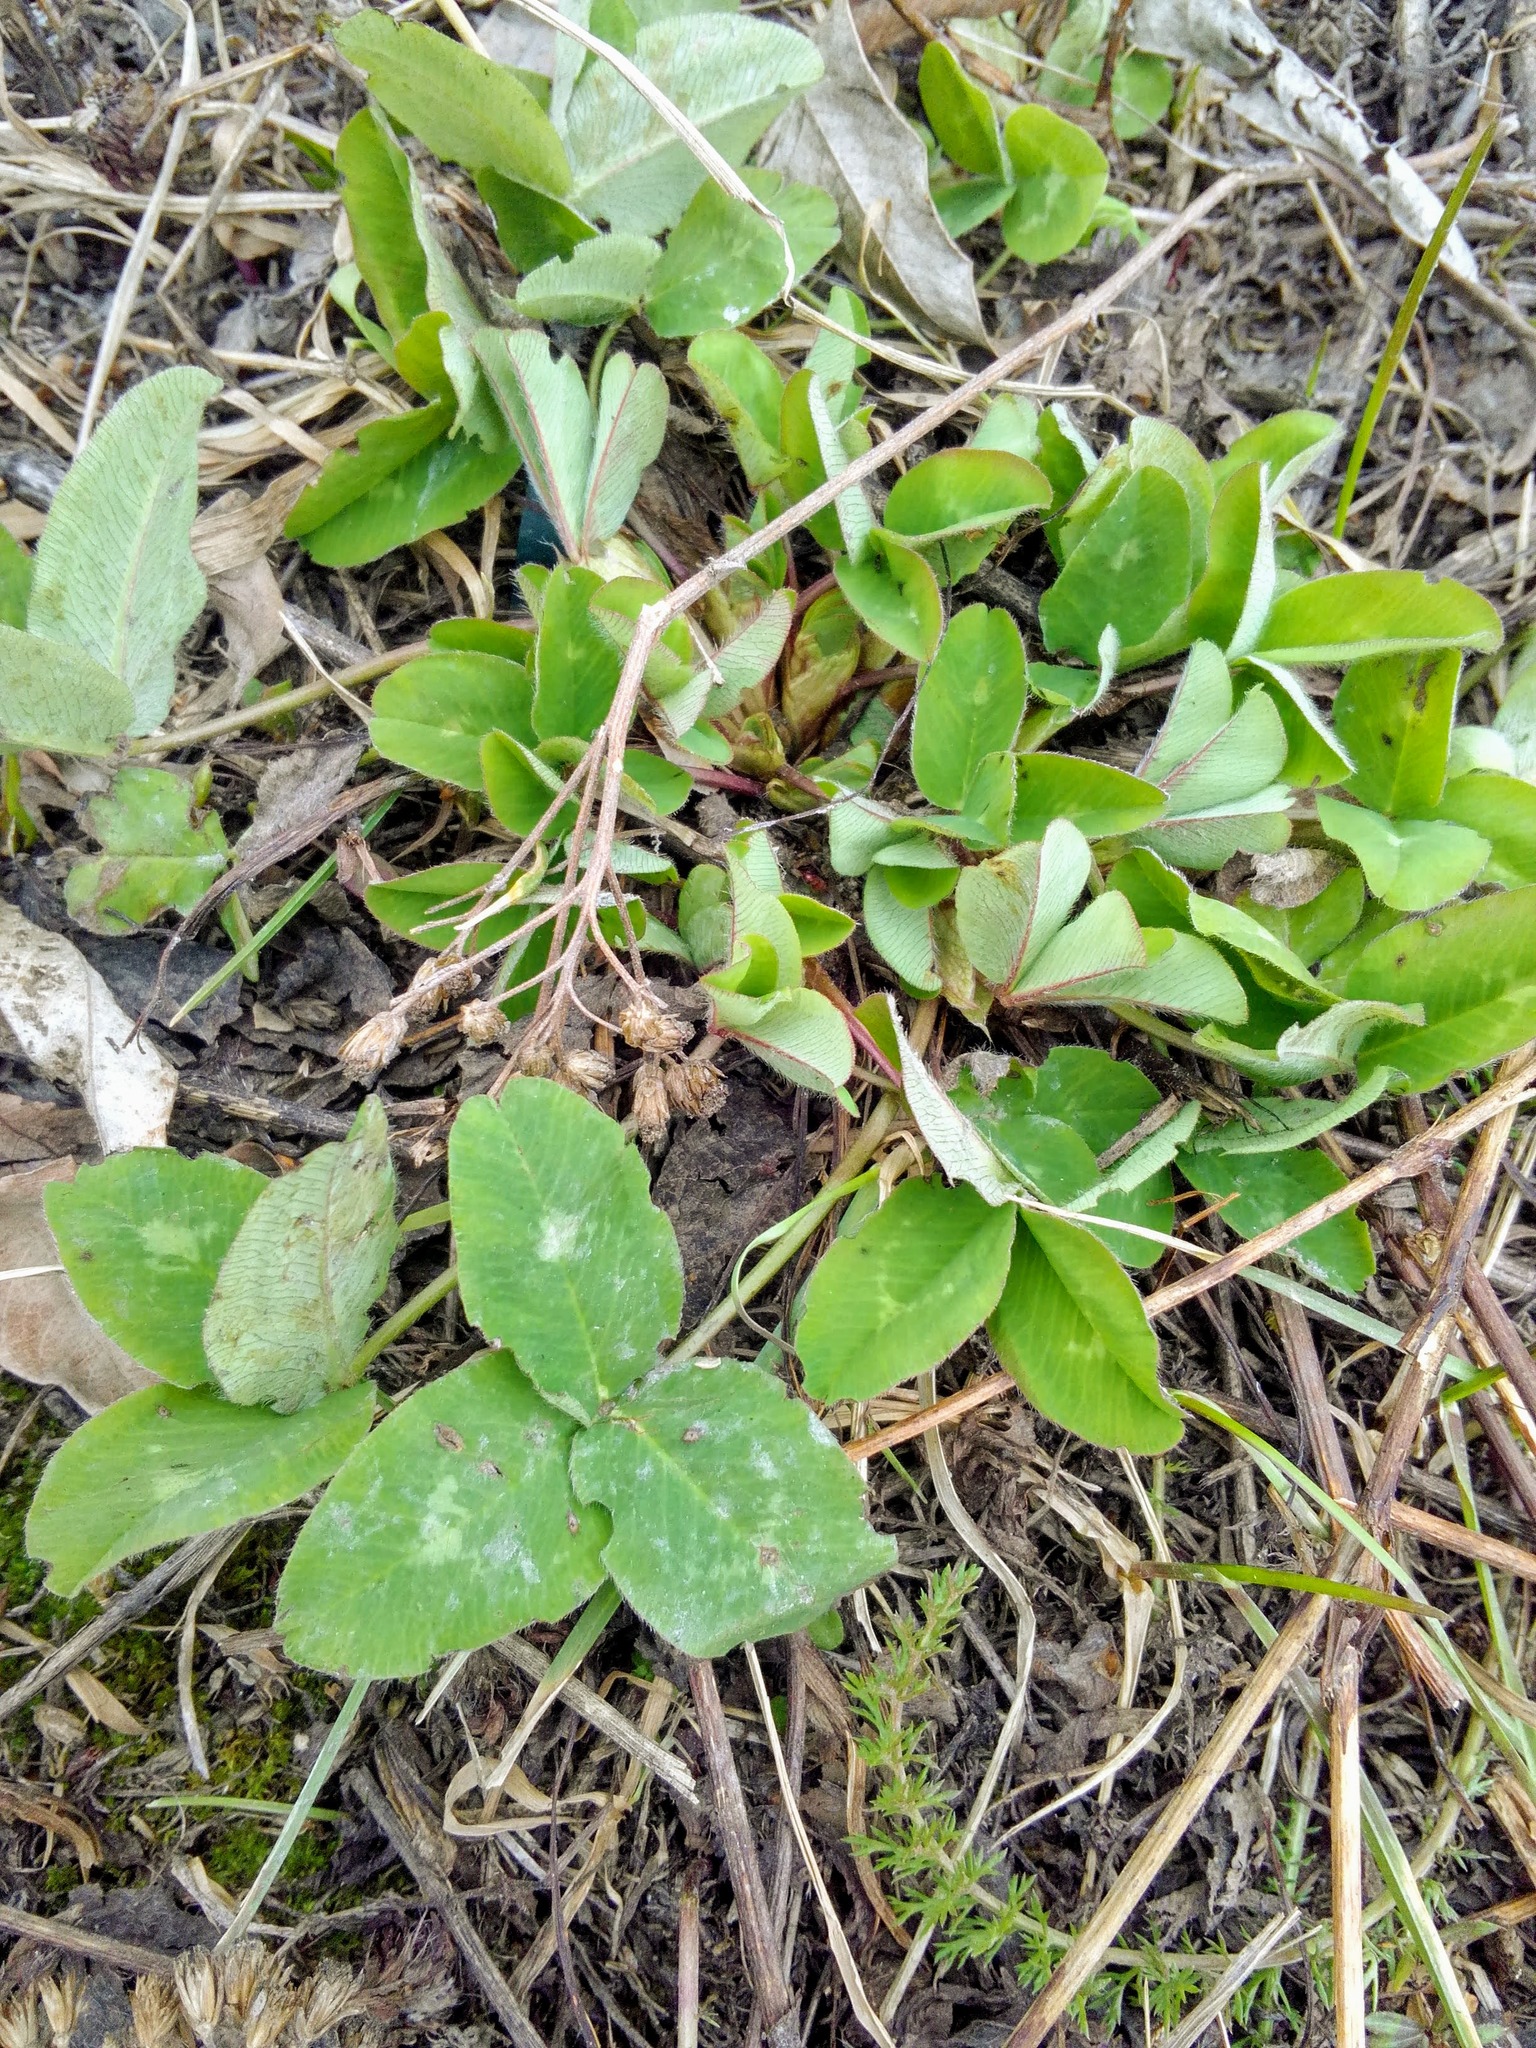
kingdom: Plantae
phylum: Tracheophyta
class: Magnoliopsida
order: Fabales
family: Fabaceae
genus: Trifolium
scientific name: Trifolium pratense
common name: Red clover
